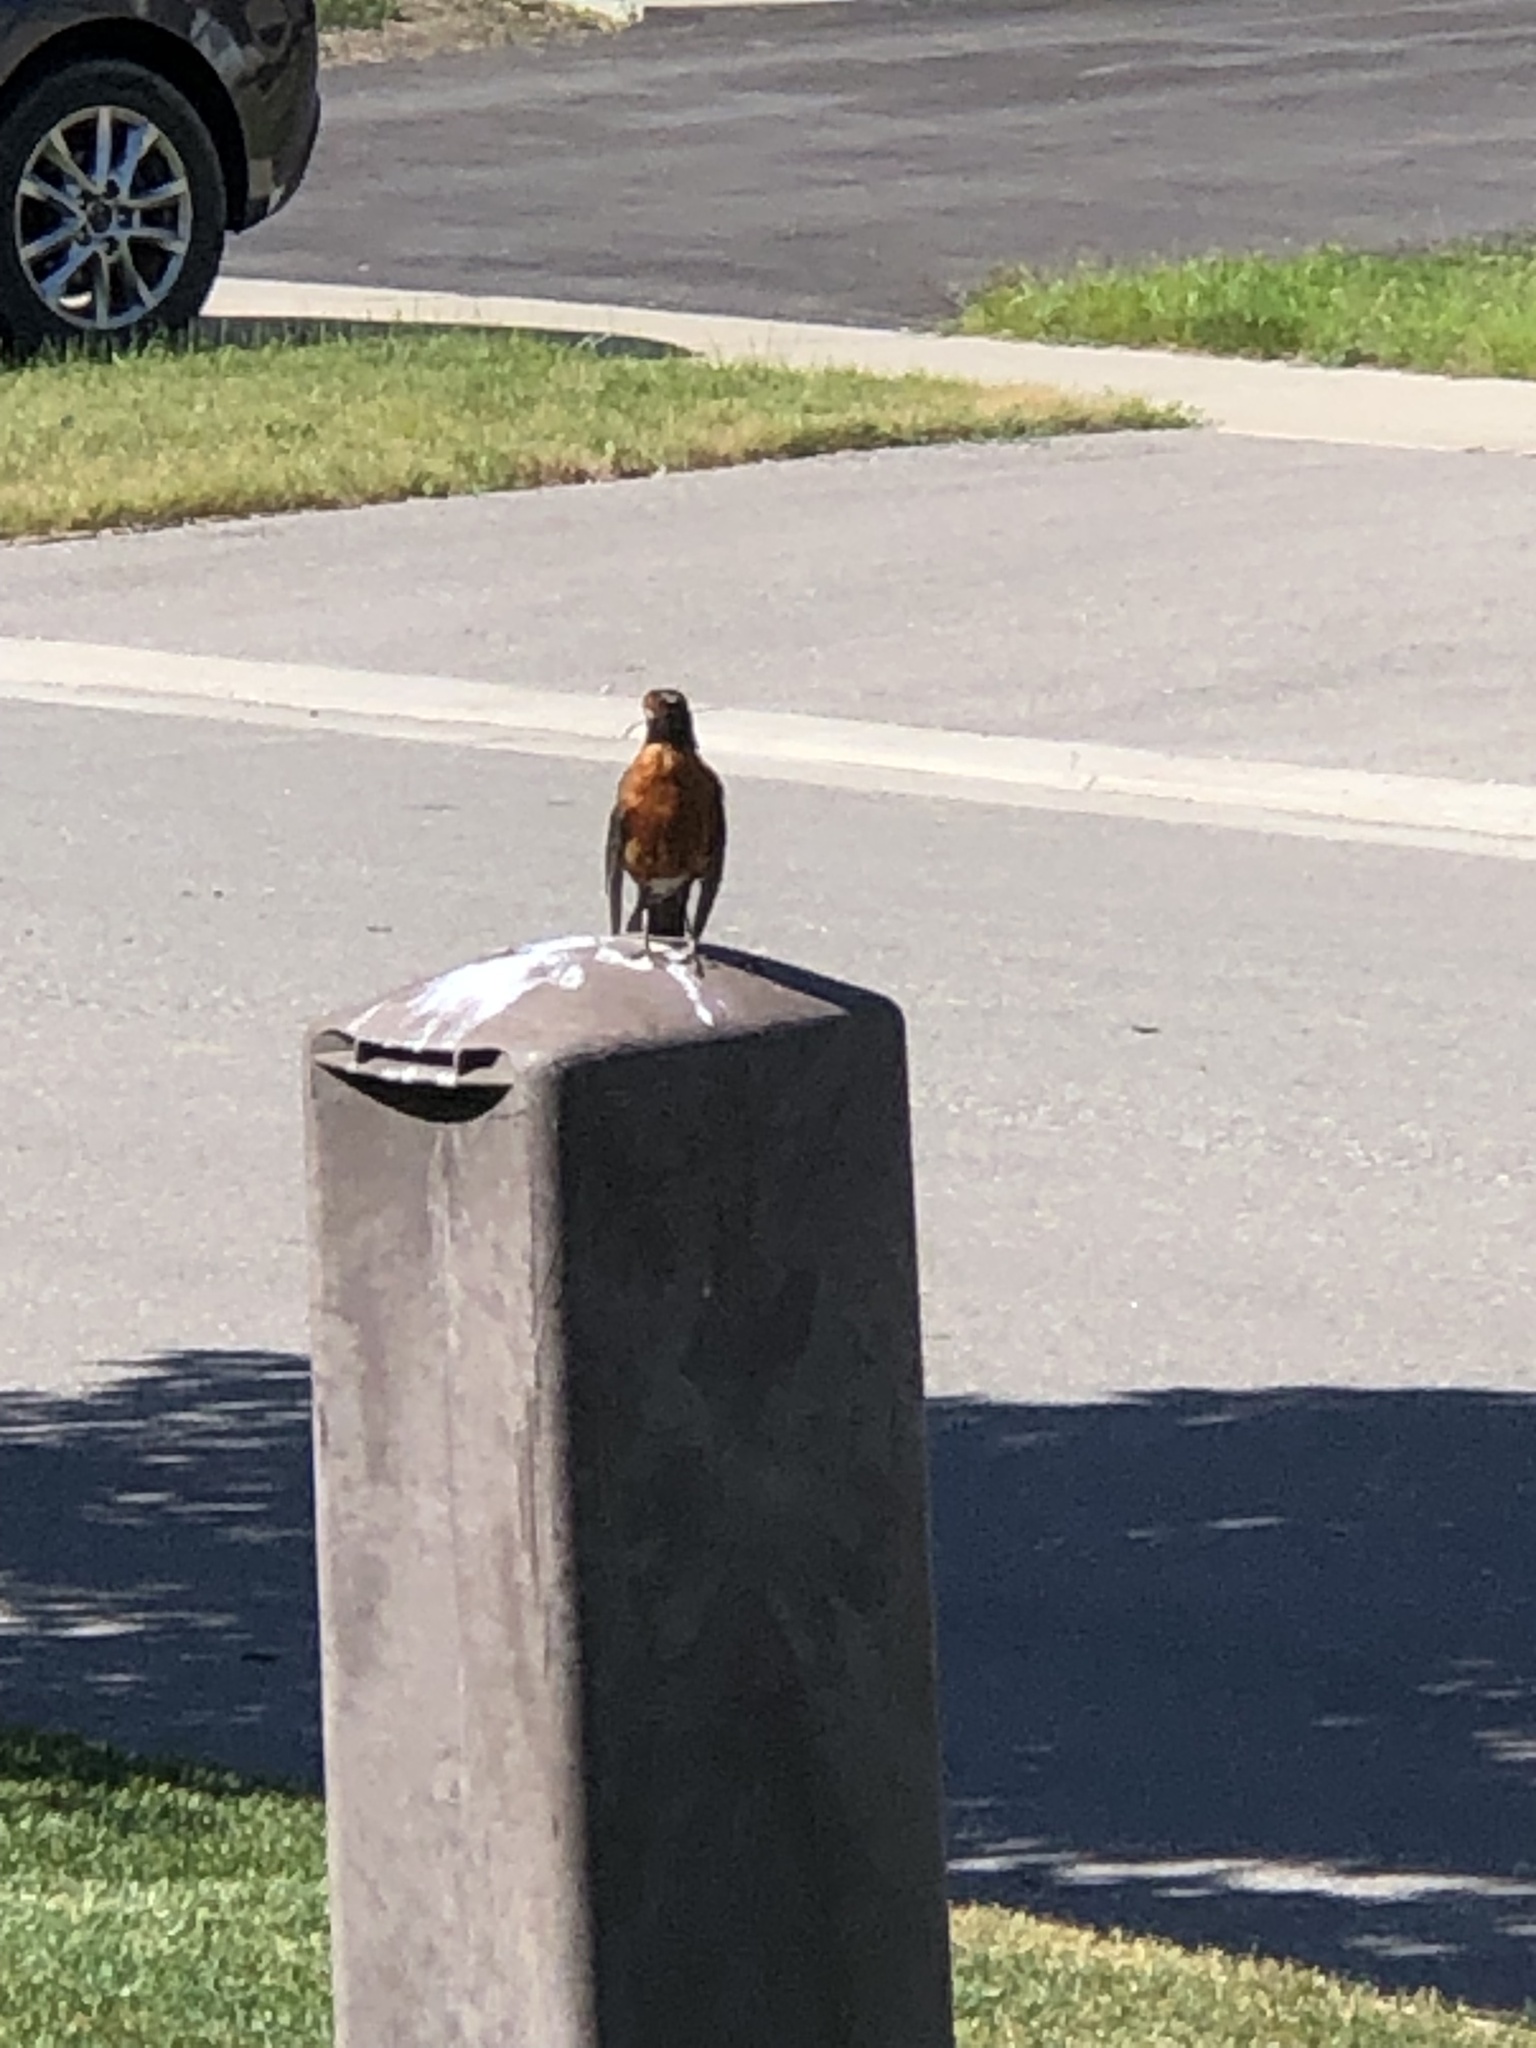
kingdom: Animalia
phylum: Chordata
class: Aves
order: Passeriformes
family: Turdidae
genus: Turdus
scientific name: Turdus migratorius
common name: American robin
